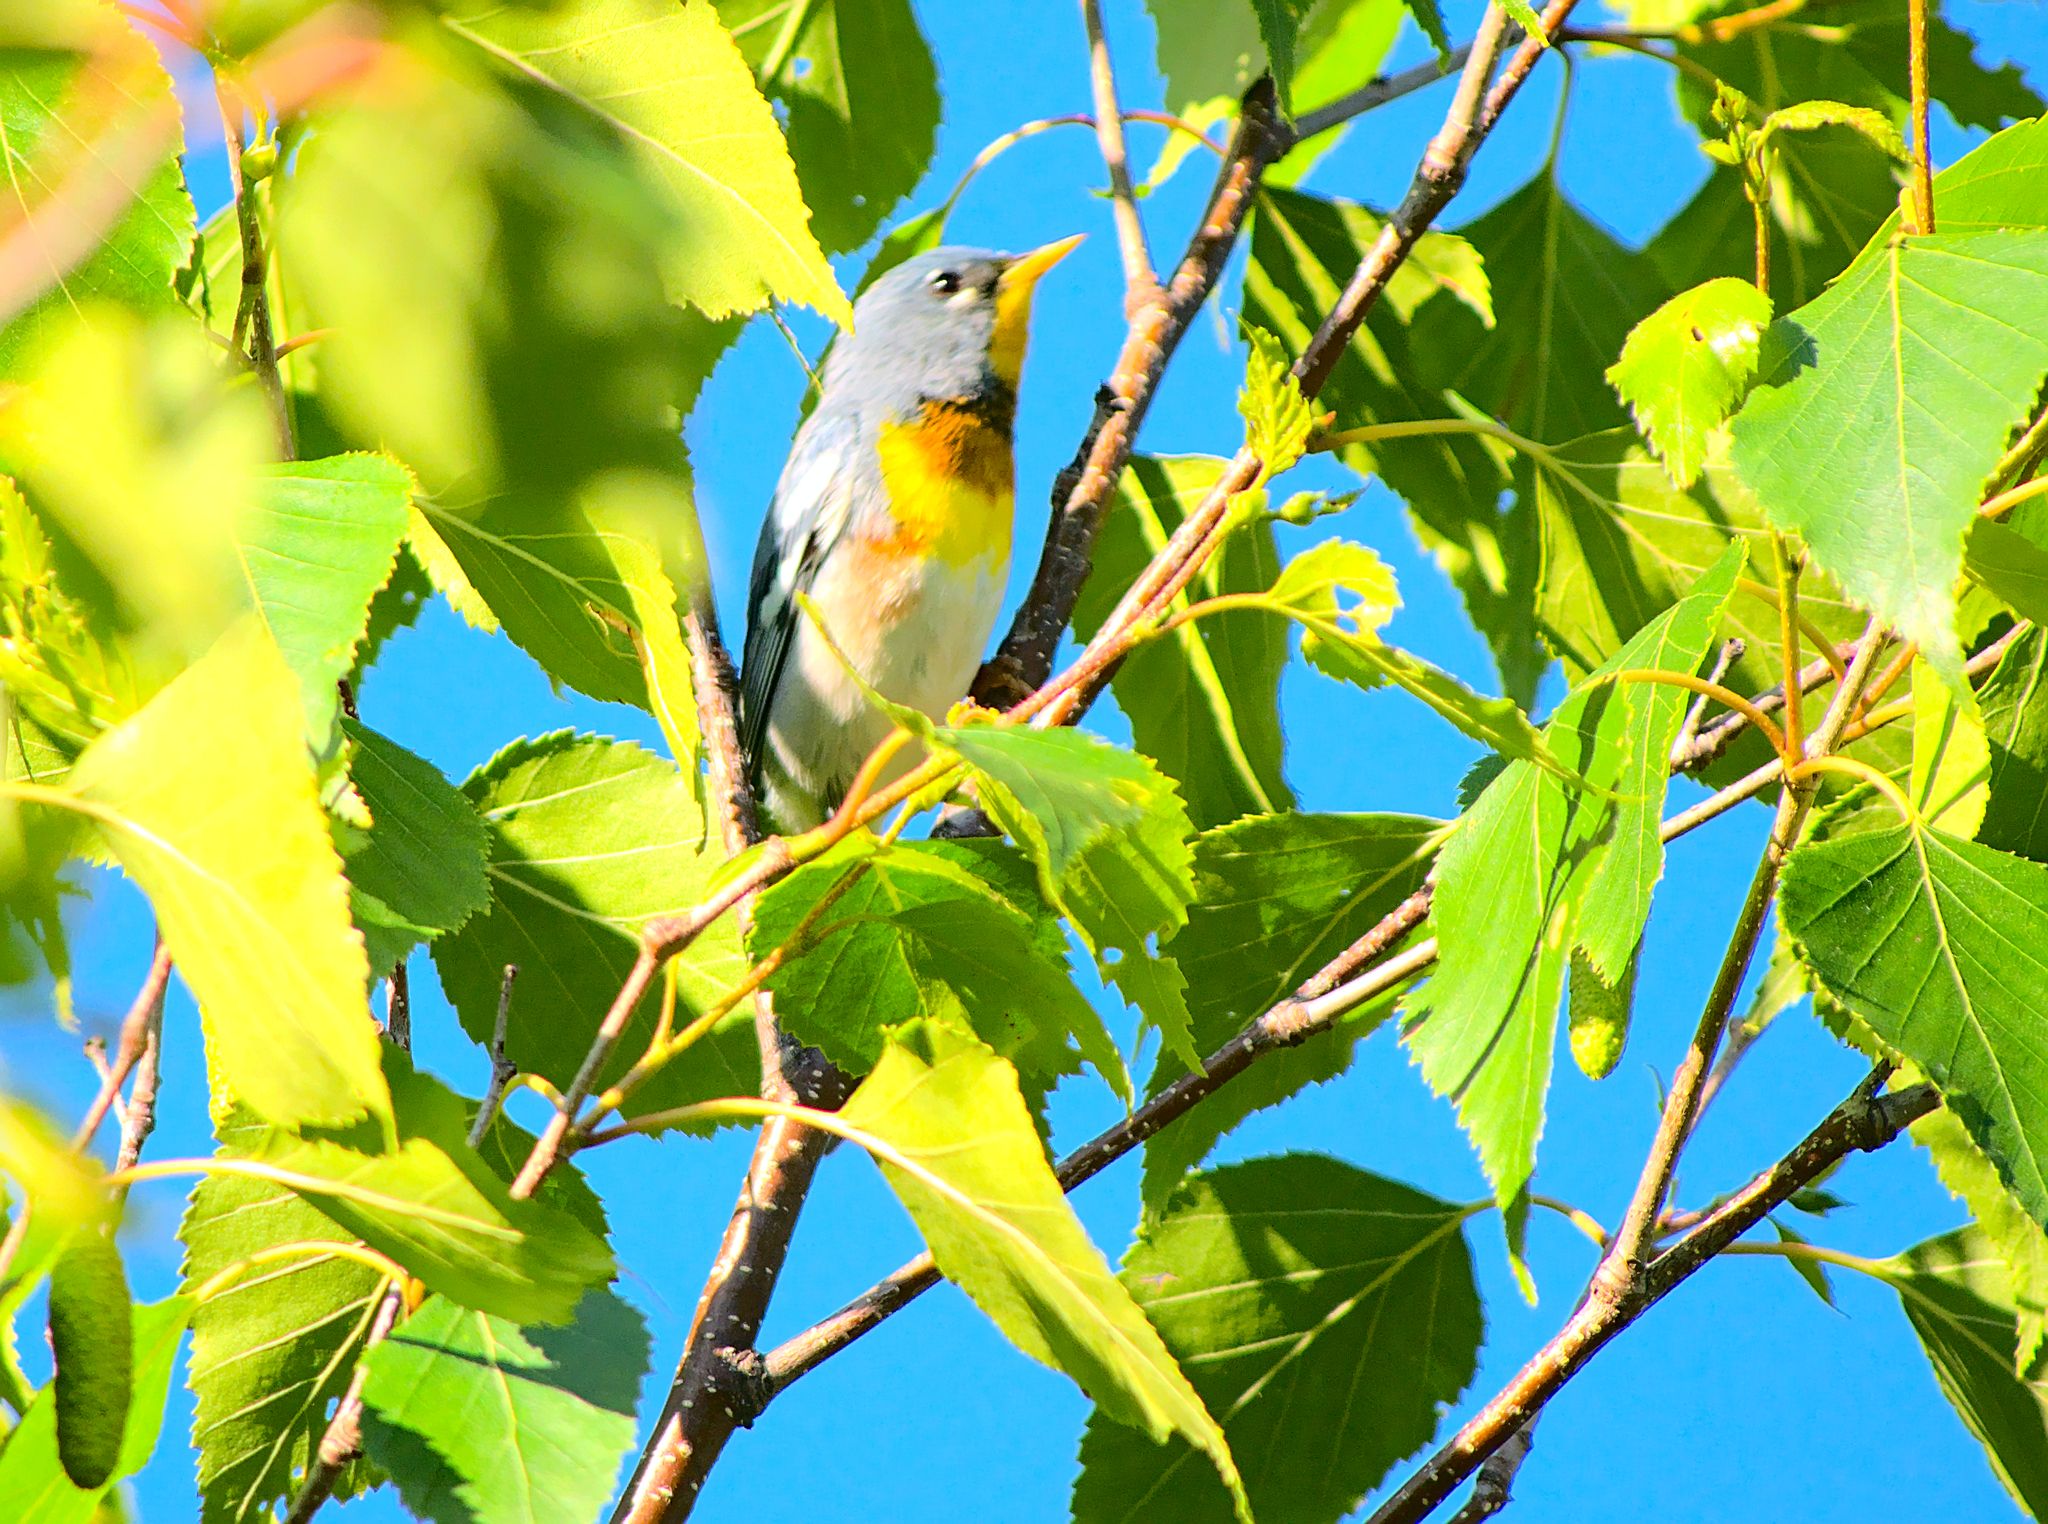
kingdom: Animalia
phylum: Chordata
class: Aves
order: Passeriformes
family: Parulidae
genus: Setophaga
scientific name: Setophaga americana
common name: Northern parula
